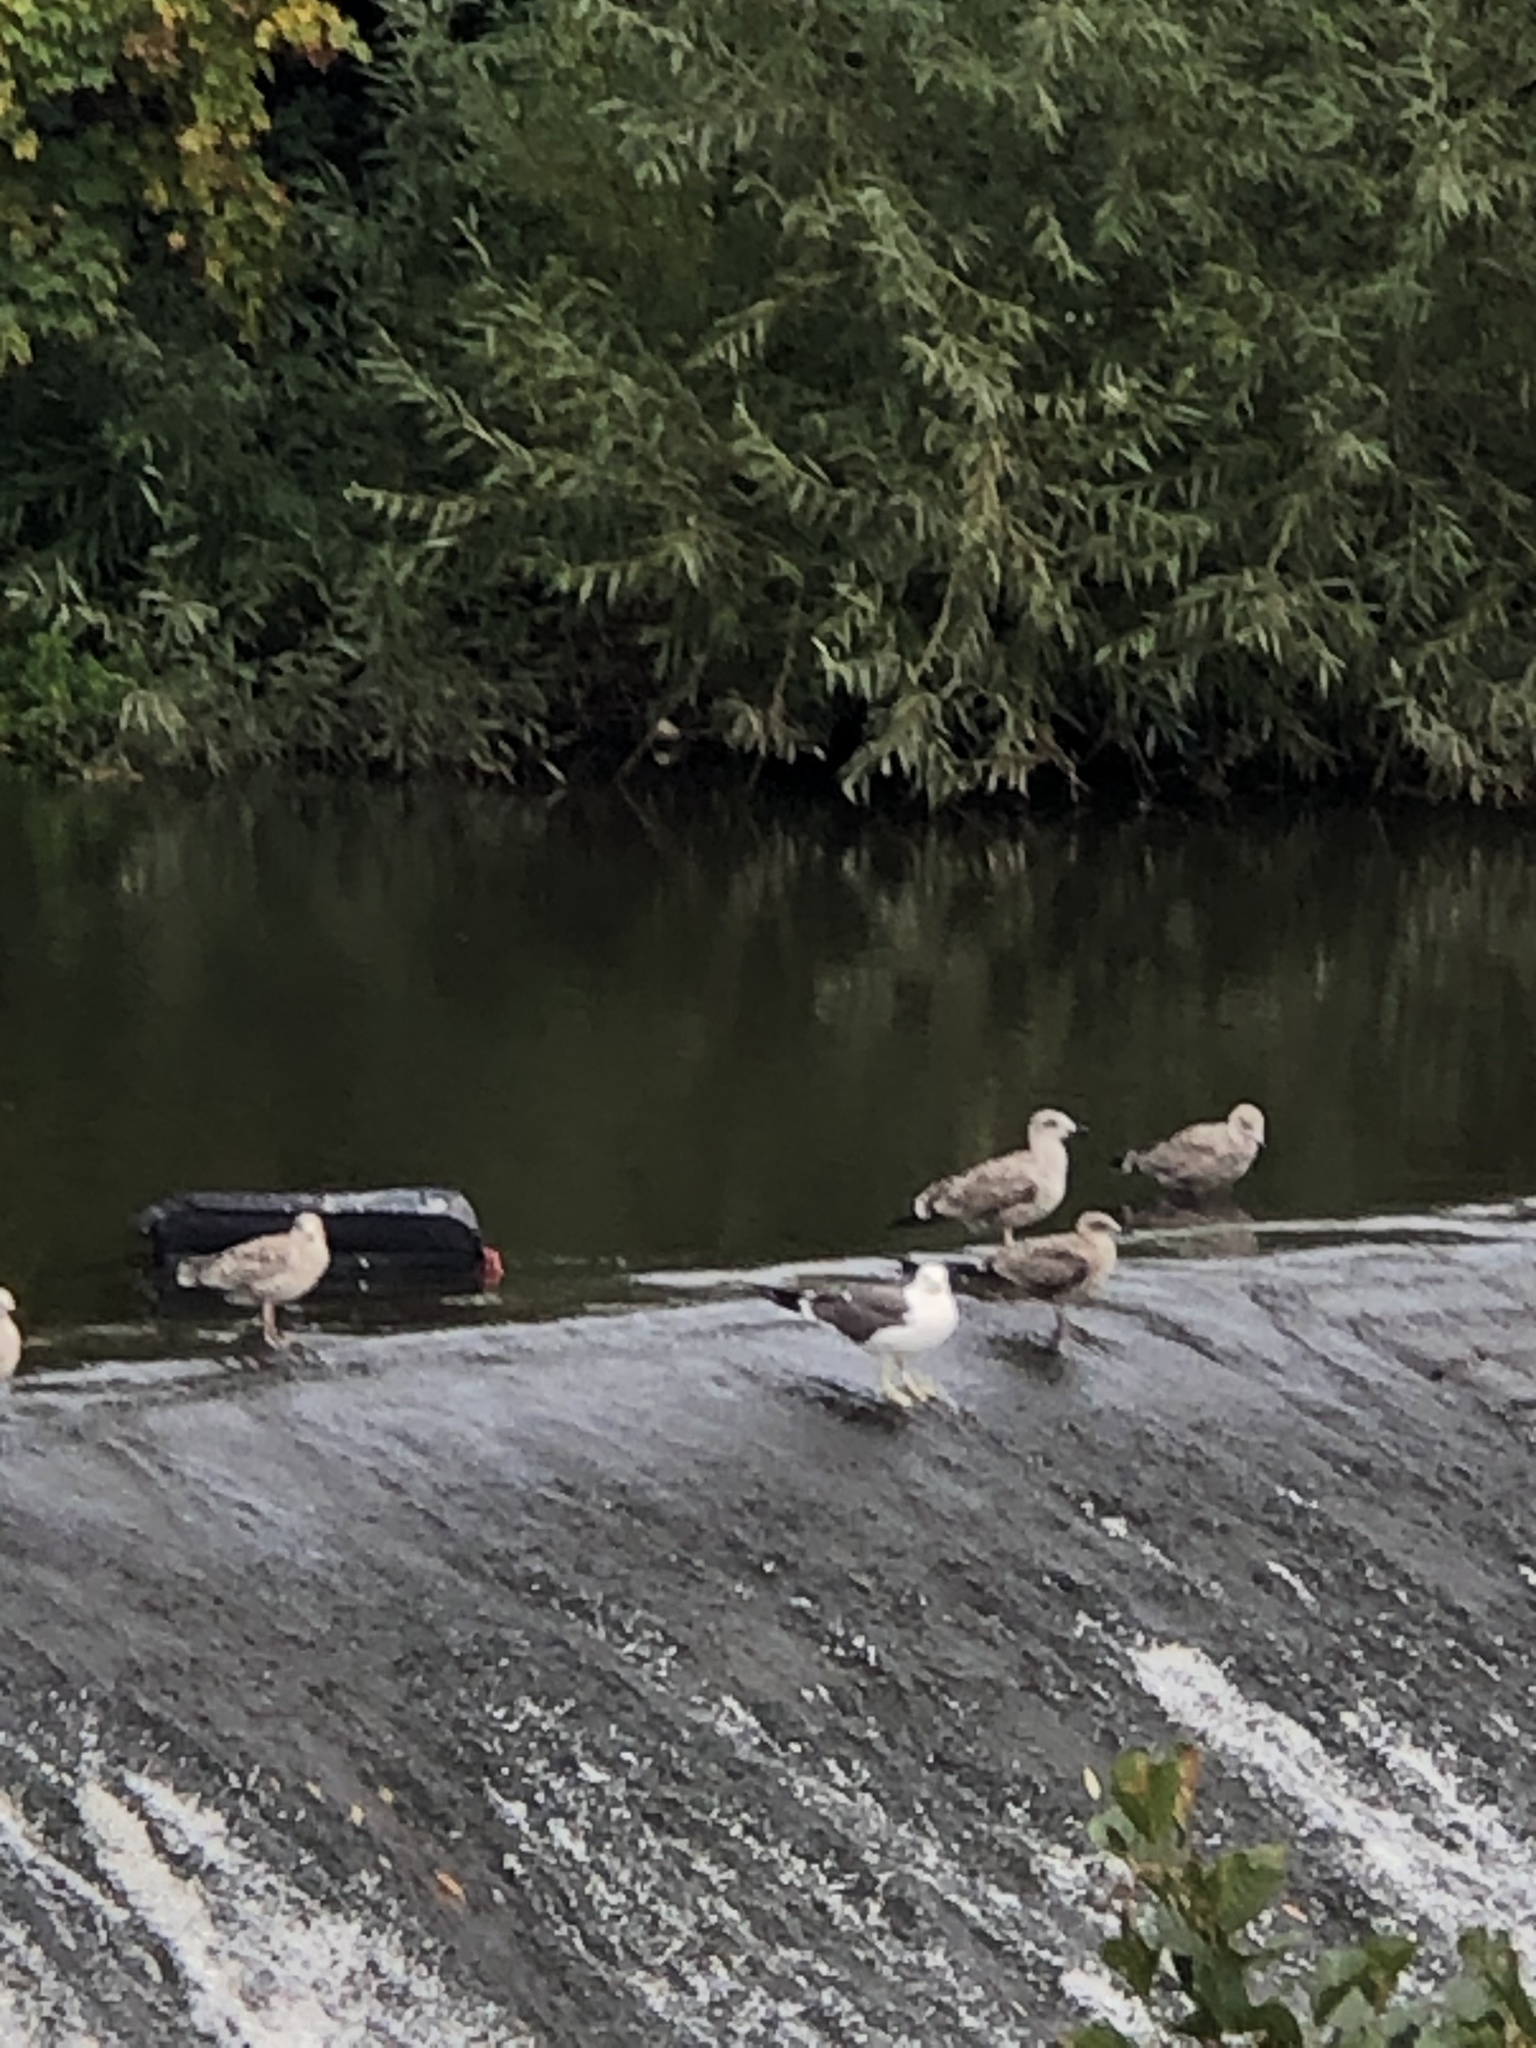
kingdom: Animalia
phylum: Chordata
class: Aves
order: Charadriiformes
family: Laridae
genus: Larus
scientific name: Larus fuscus
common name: Lesser black-backed gull
